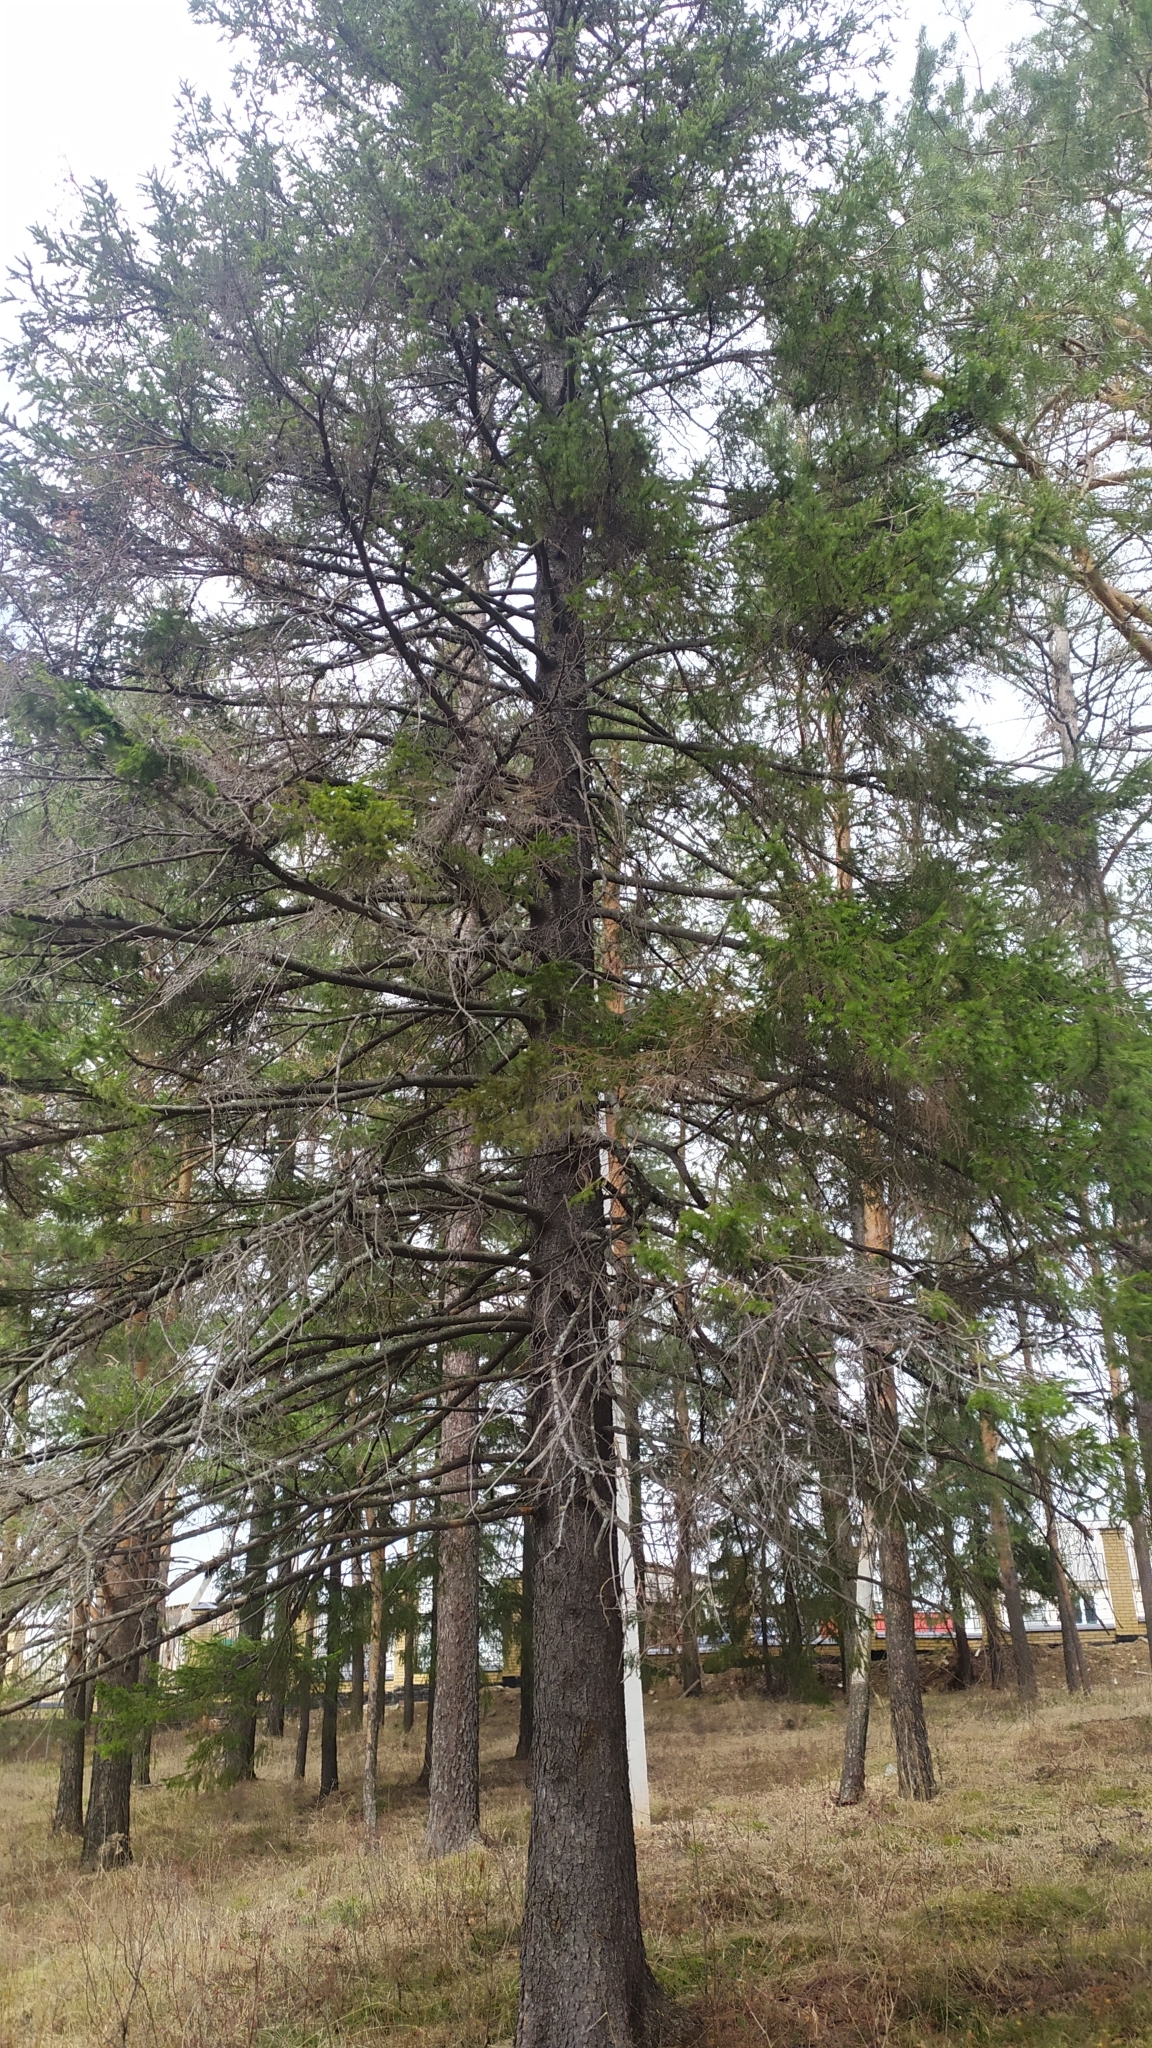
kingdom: Plantae
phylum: Tracheophyta
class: Pinopsida
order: Pinales
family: Pinaceae
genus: Picea
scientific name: Picea obovata
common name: Siberian spruce
